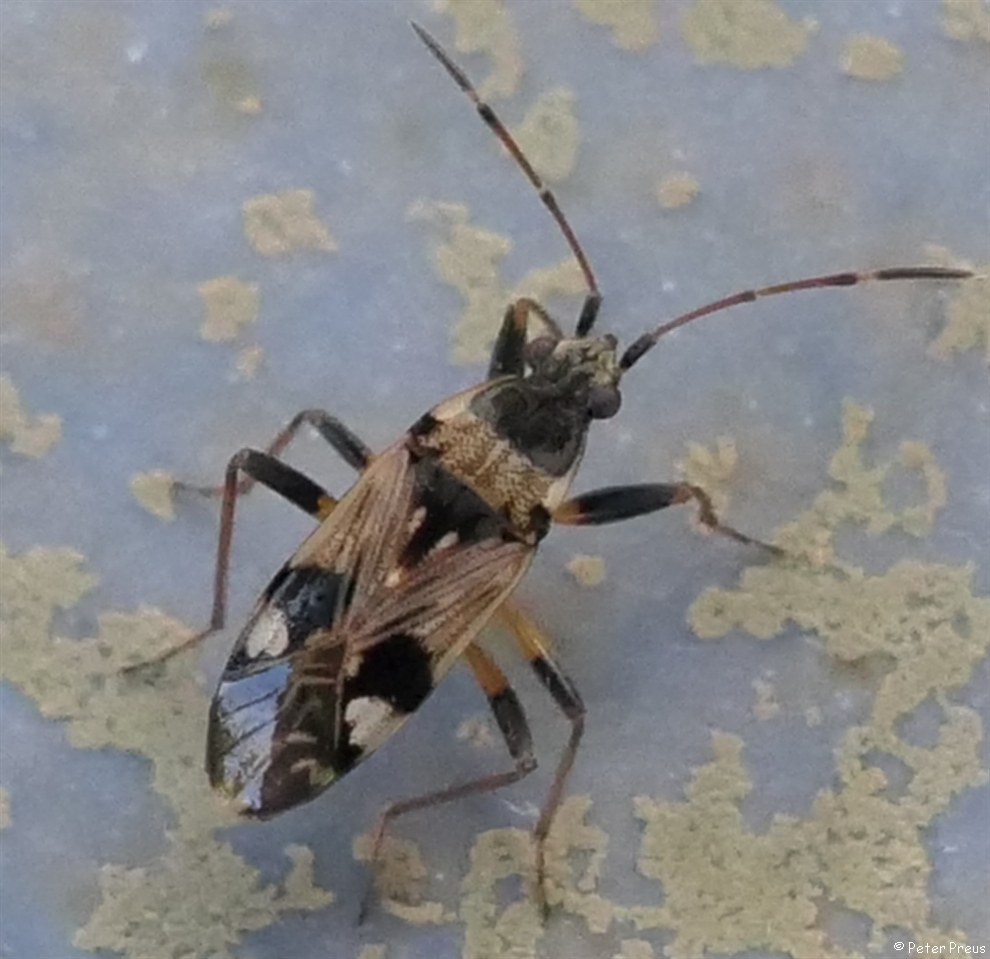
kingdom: Animalia
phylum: Arthropoda
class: Insecta
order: Hemiptera
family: Rhyparochromidae
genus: Beosus
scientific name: Beosus maritimus
